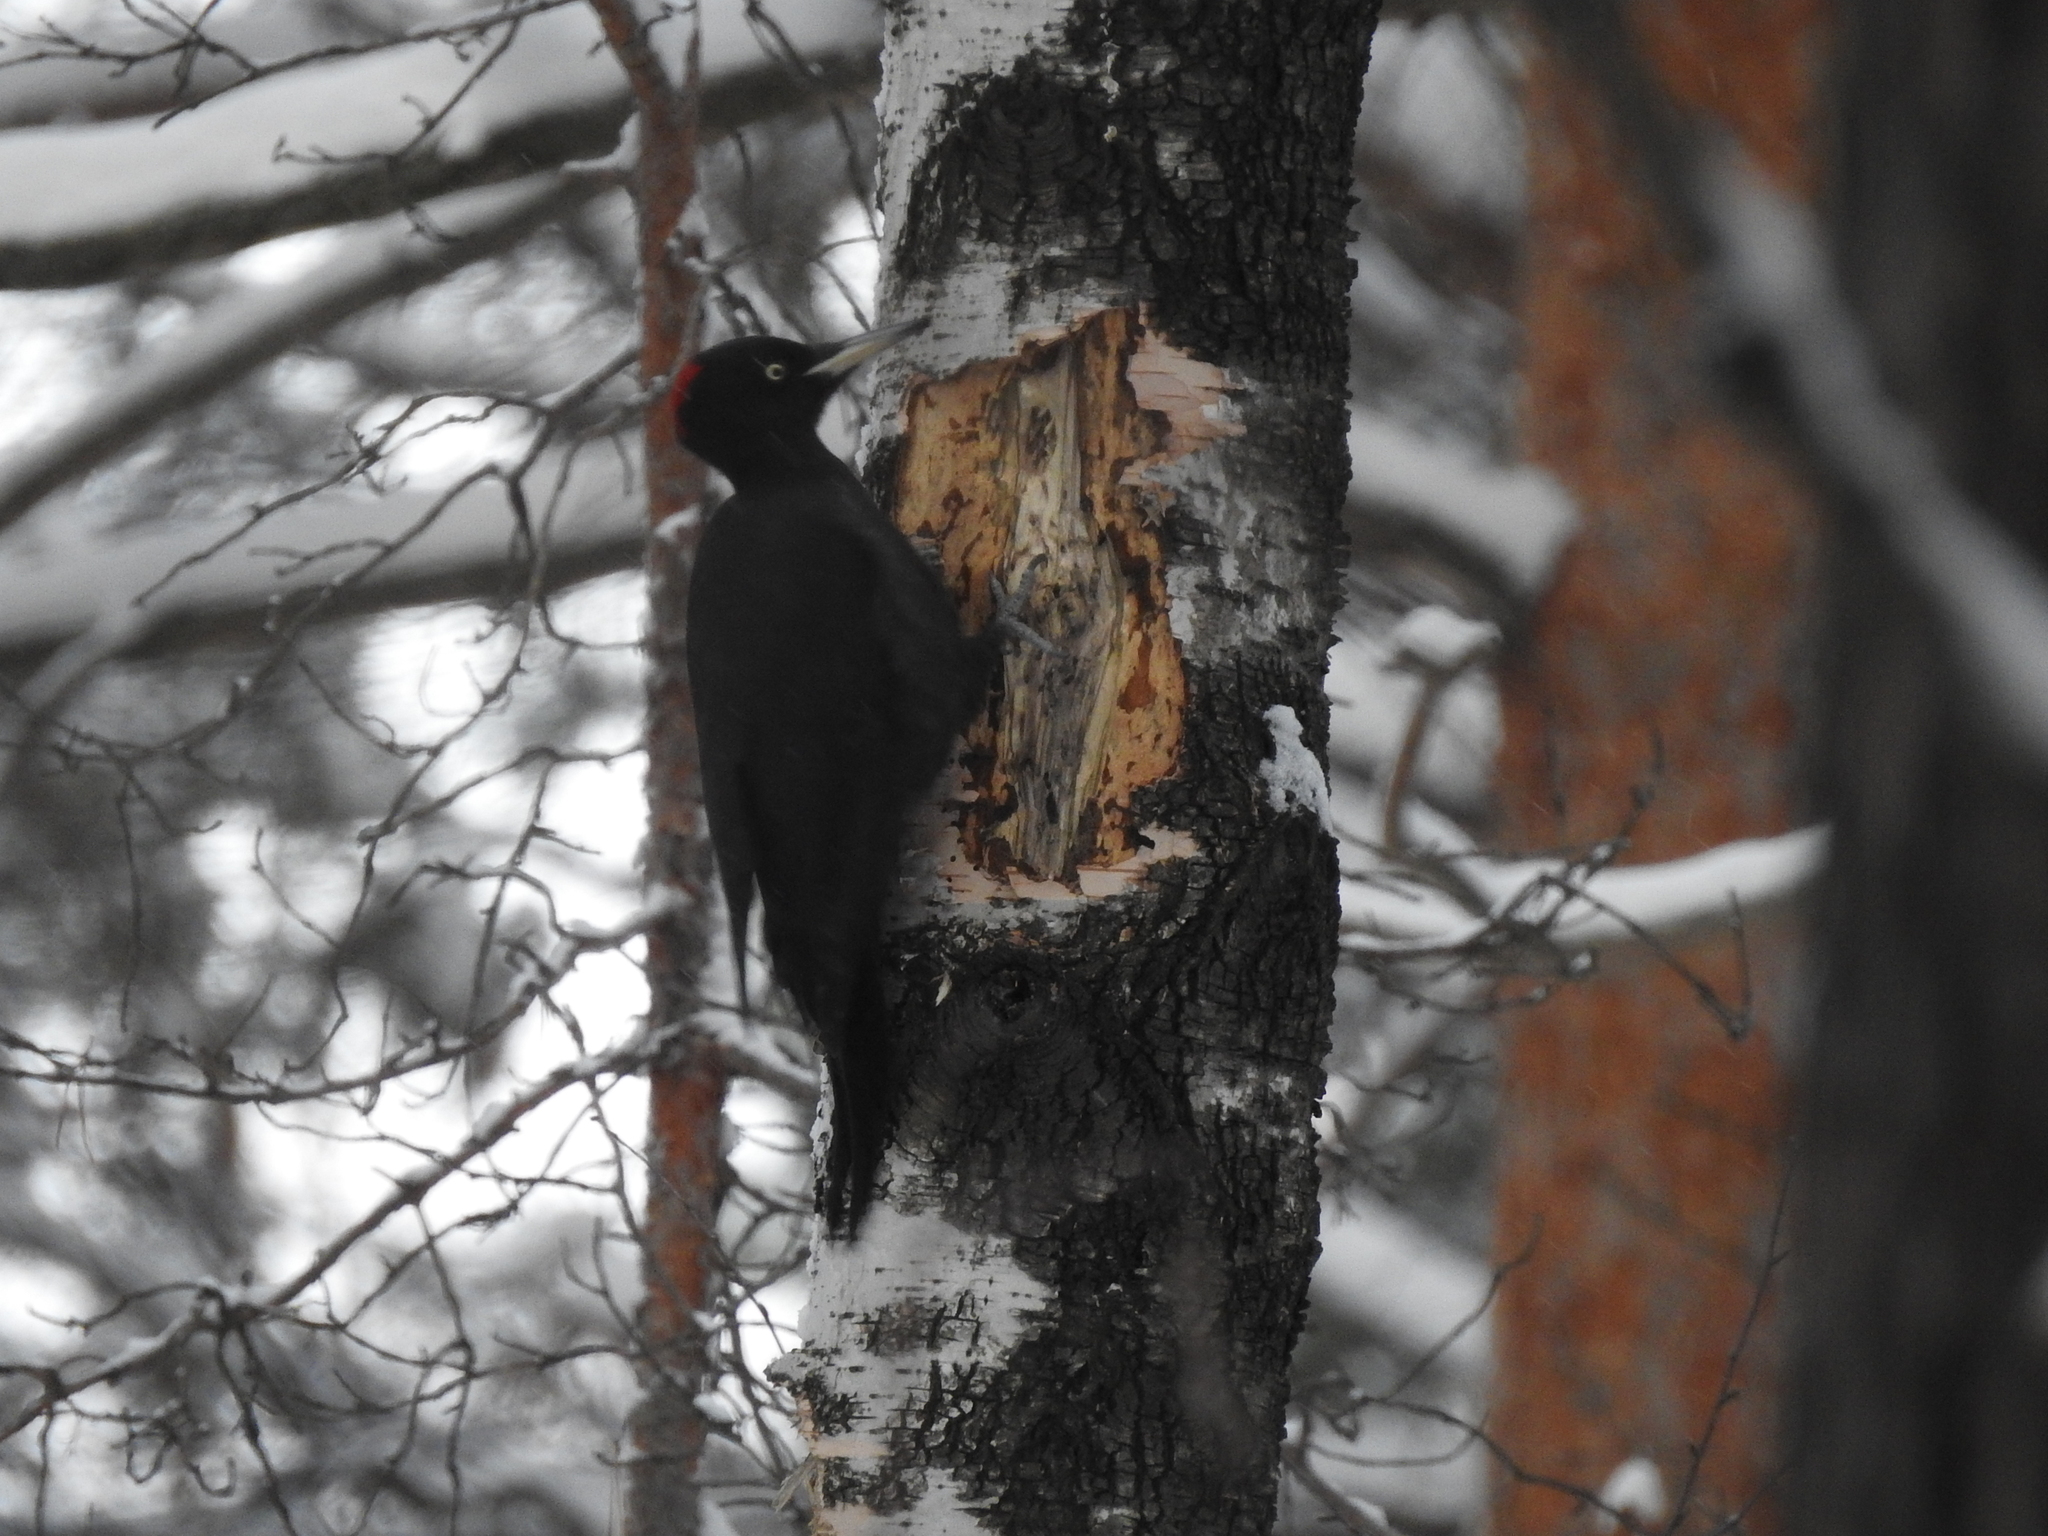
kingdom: Animalia
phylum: Chordata
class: Aves
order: Piciformes
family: Picidae
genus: Dryocopus
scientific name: Dryocopus martius
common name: Black woodpecker
